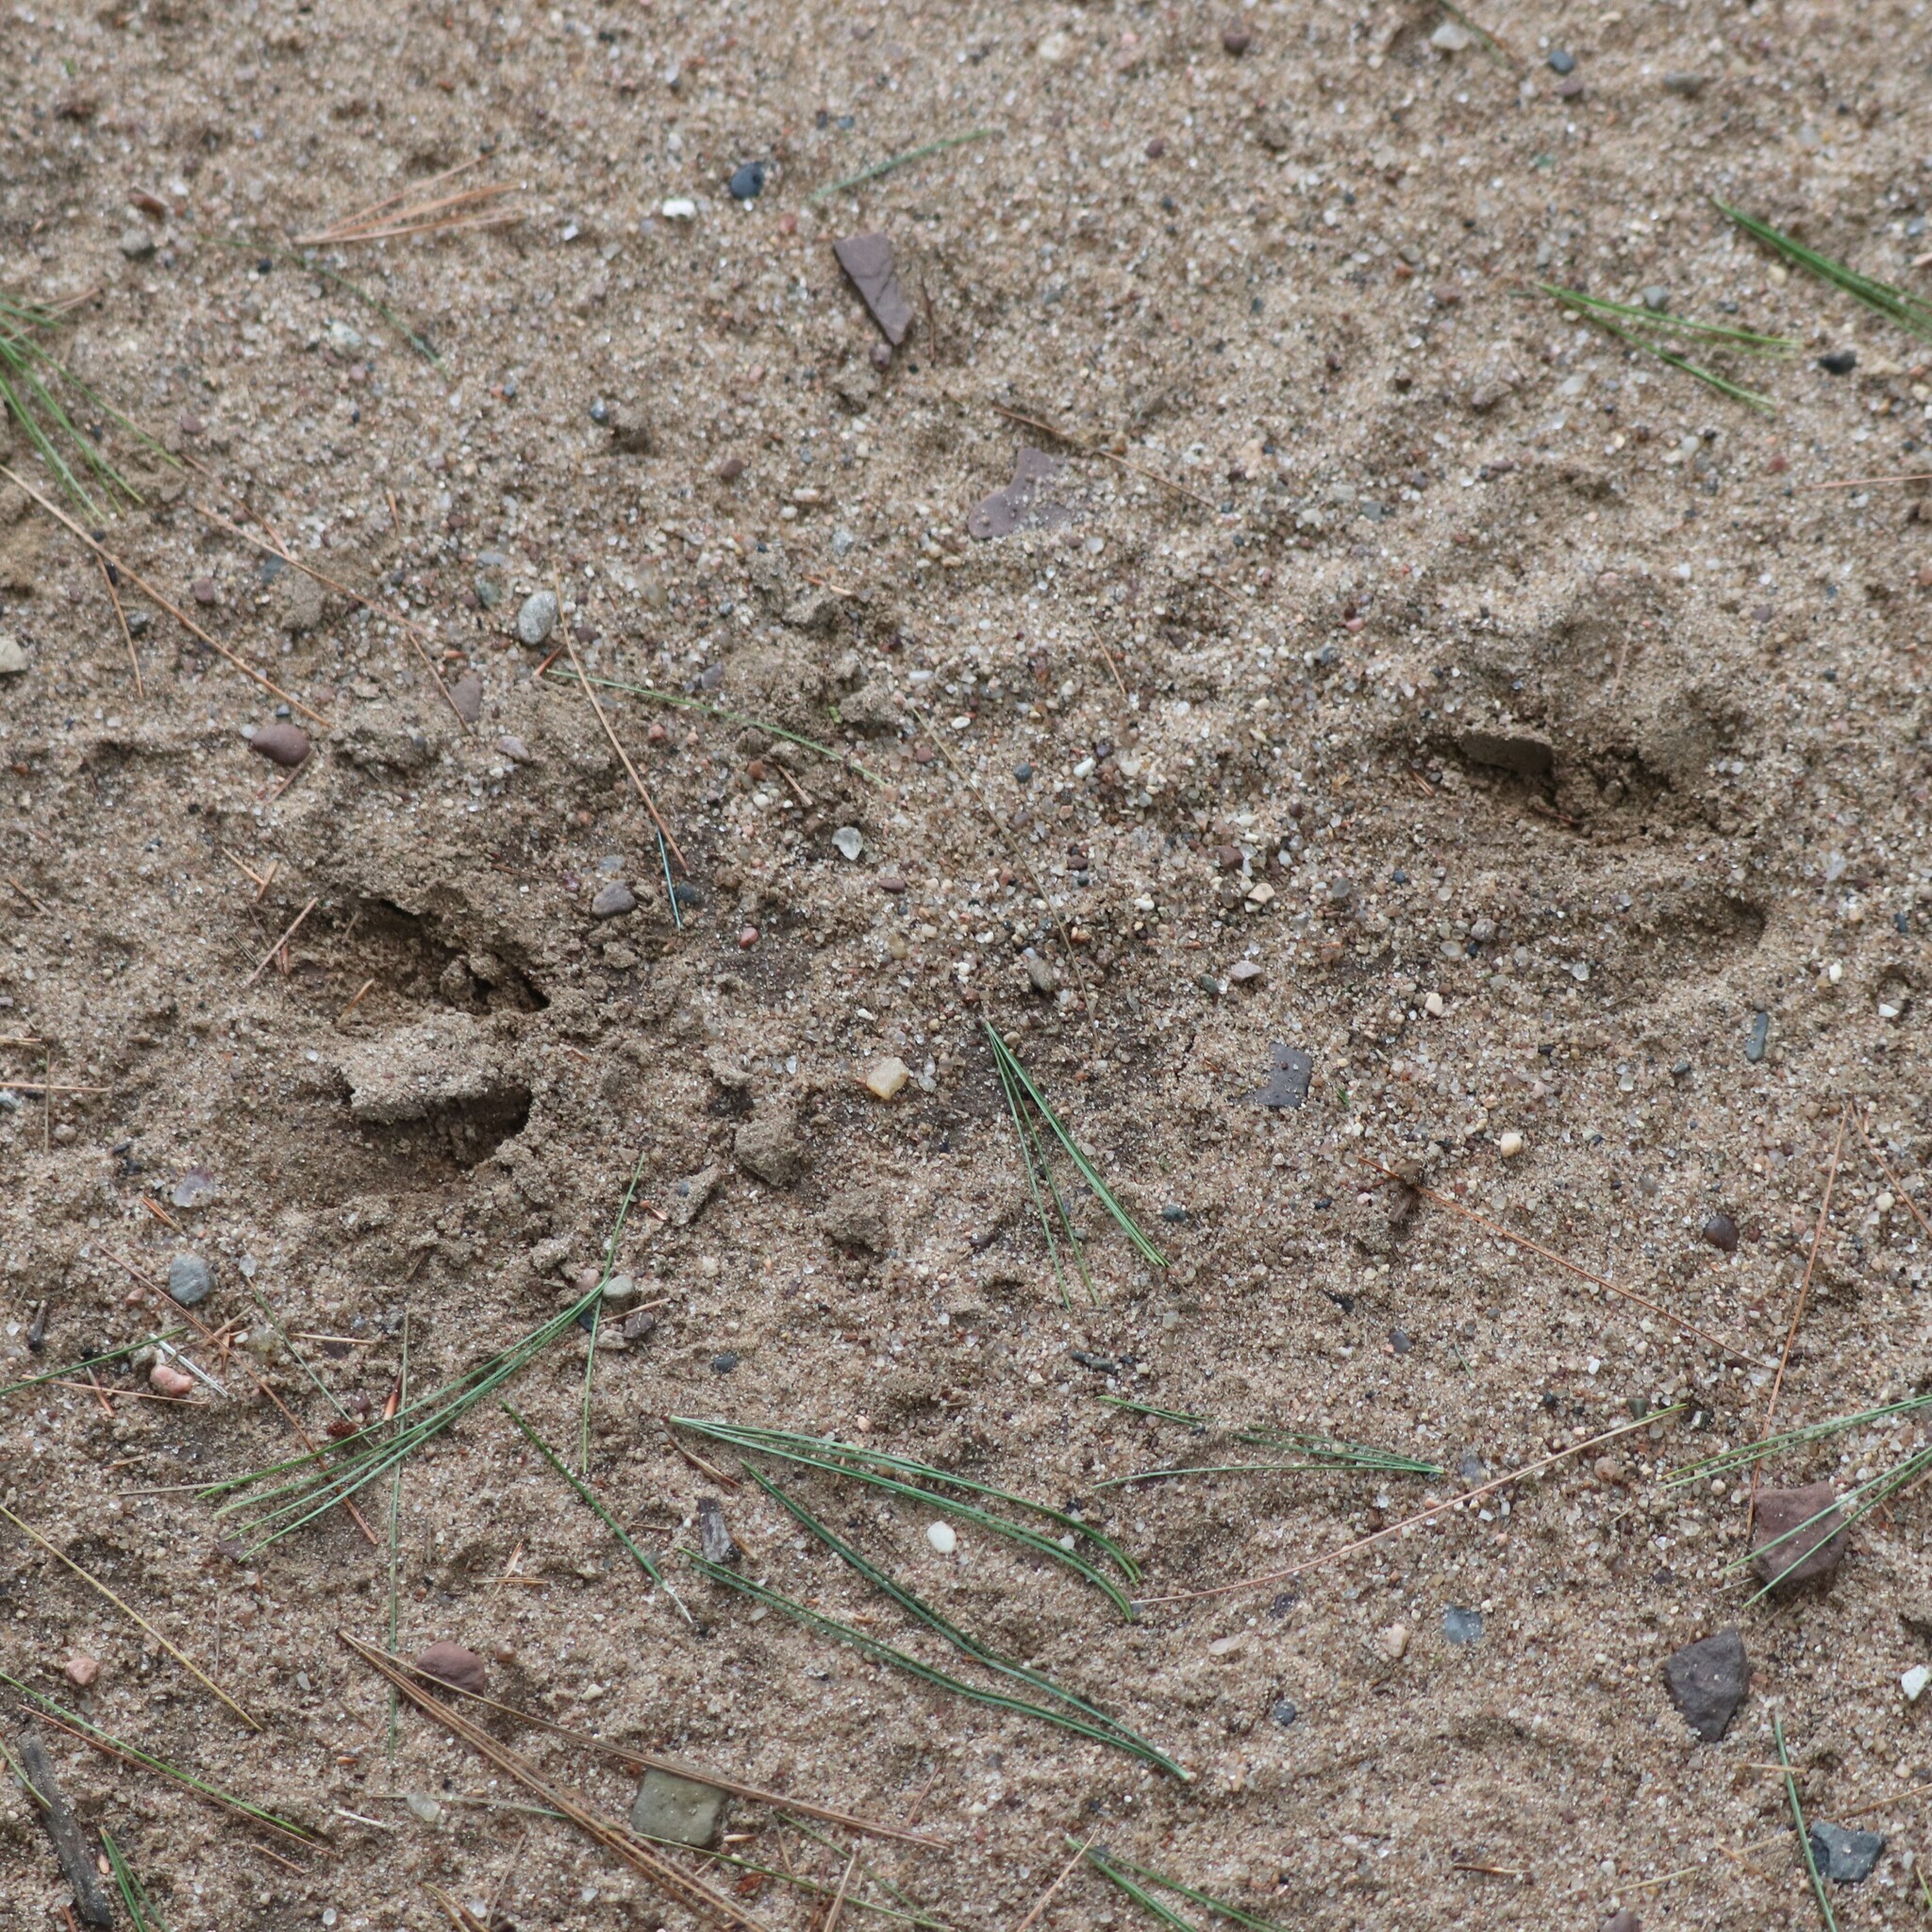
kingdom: Animalia
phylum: Chordata
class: Mammalia
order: Artiodactyla
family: Cervidae
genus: Odocoileus
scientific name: Odocoileus virginianus
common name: White-tailed deer
